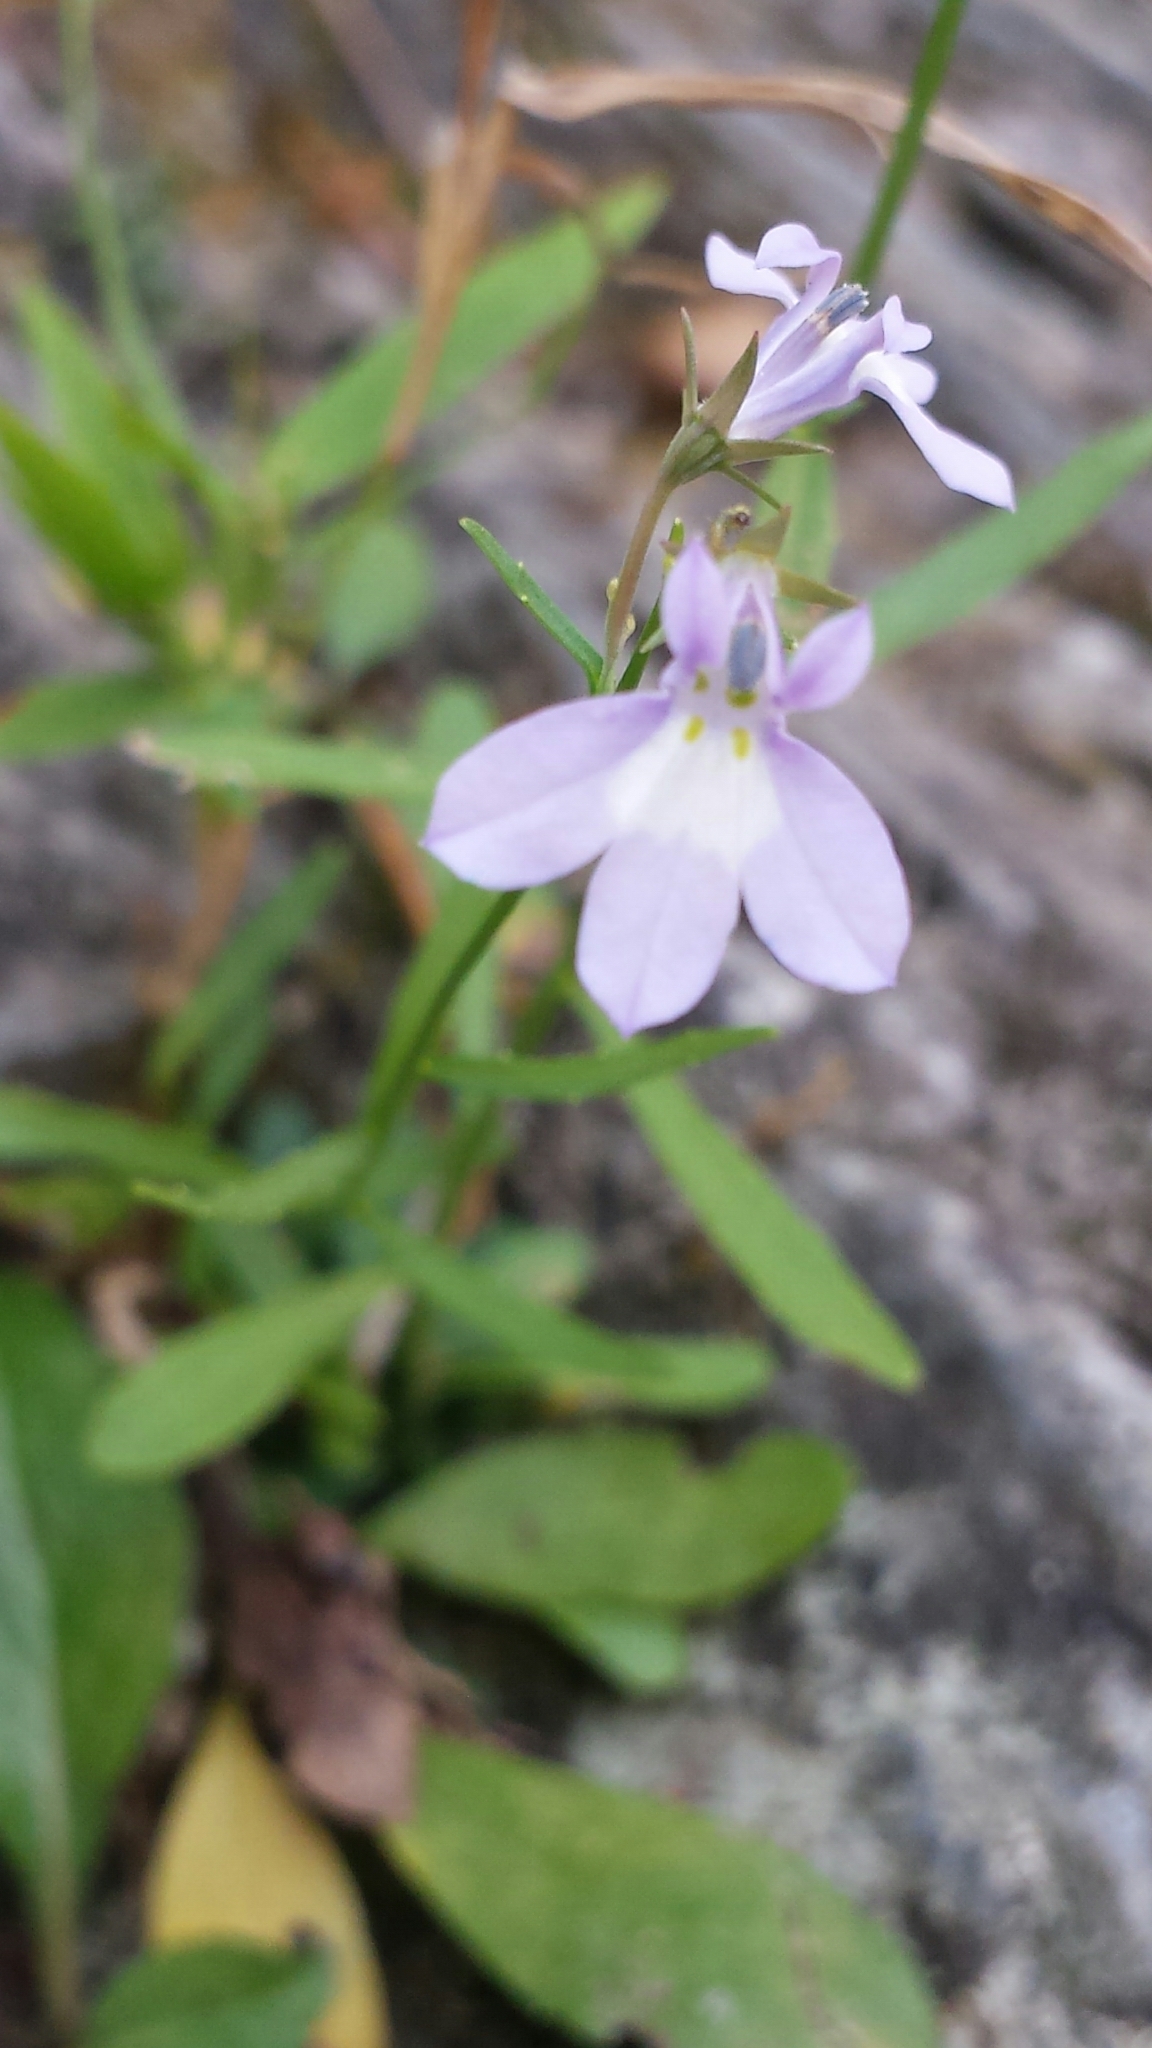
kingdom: Plantae
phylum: Tracheophyta
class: Magnoliopsida
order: Asterales
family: Campanulaceae
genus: Lobelia
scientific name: Lobelia kalmii
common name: Kalm's lobelia
